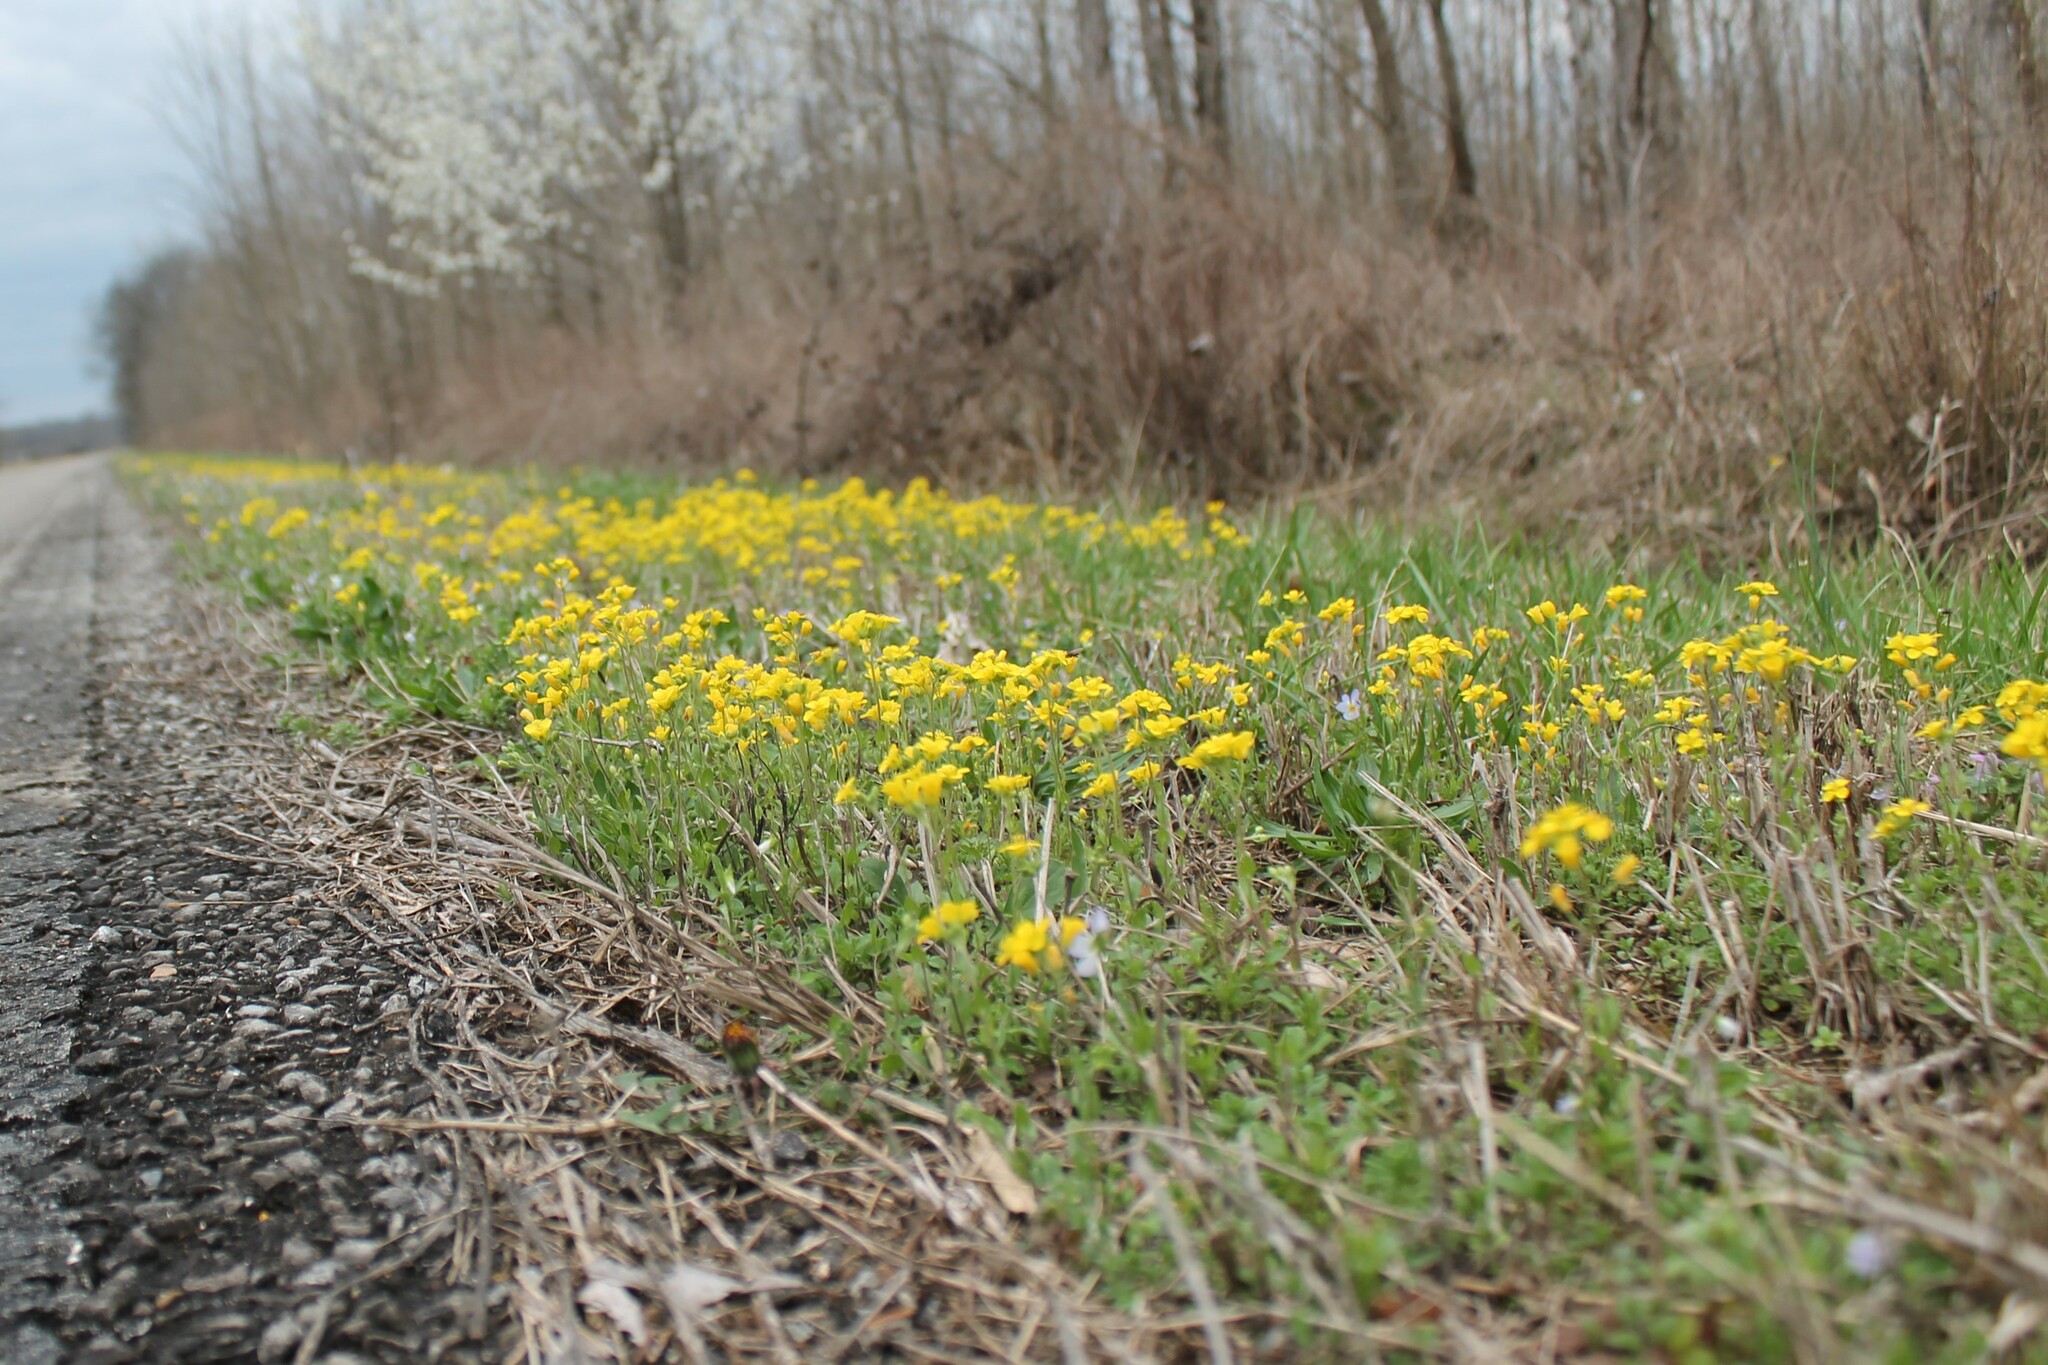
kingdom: Plantae
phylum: Tracheophyta
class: Magnoliopsida
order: Brassicales
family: Brassicaceae
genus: Paysonia
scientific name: Paysonia lescurii
